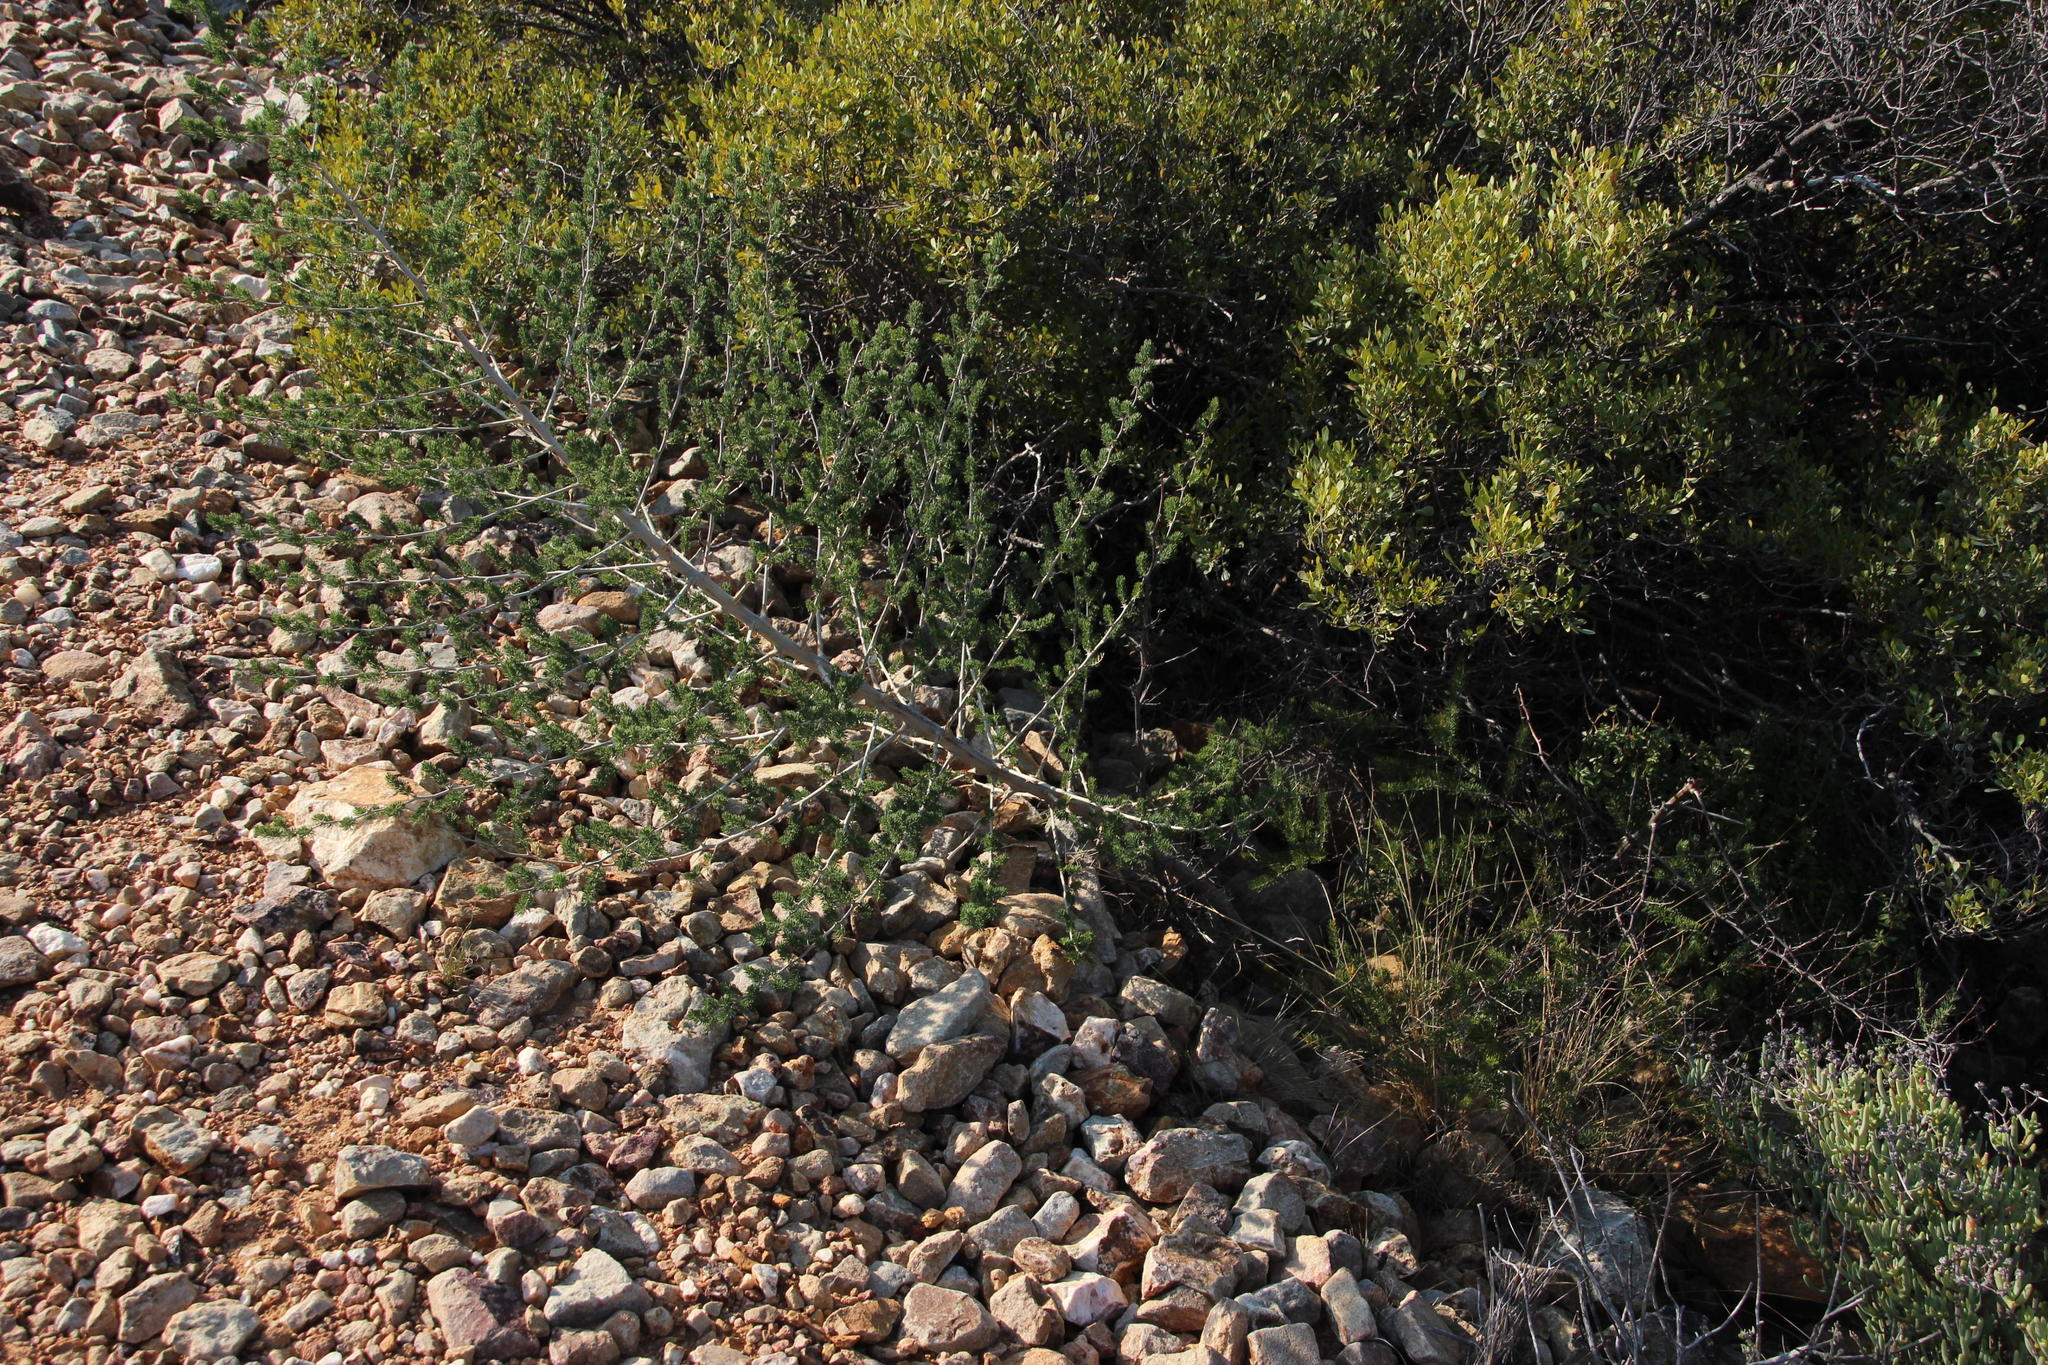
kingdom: Plantae
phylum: Tracheophyta
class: Liliopsida
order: Asparagales
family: Asparagaceae
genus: Asparagus
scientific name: Asparagus mucronatus
